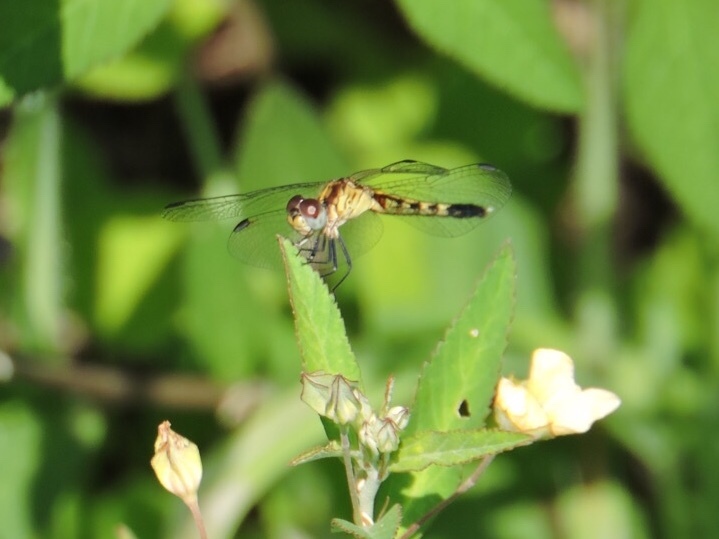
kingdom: Animalia
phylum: Arthropoda
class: Insecta
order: Odonata
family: Libellulidae
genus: Erythrodiplax
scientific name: Erythrodiplax minuscula
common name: Little blue dragonlet
